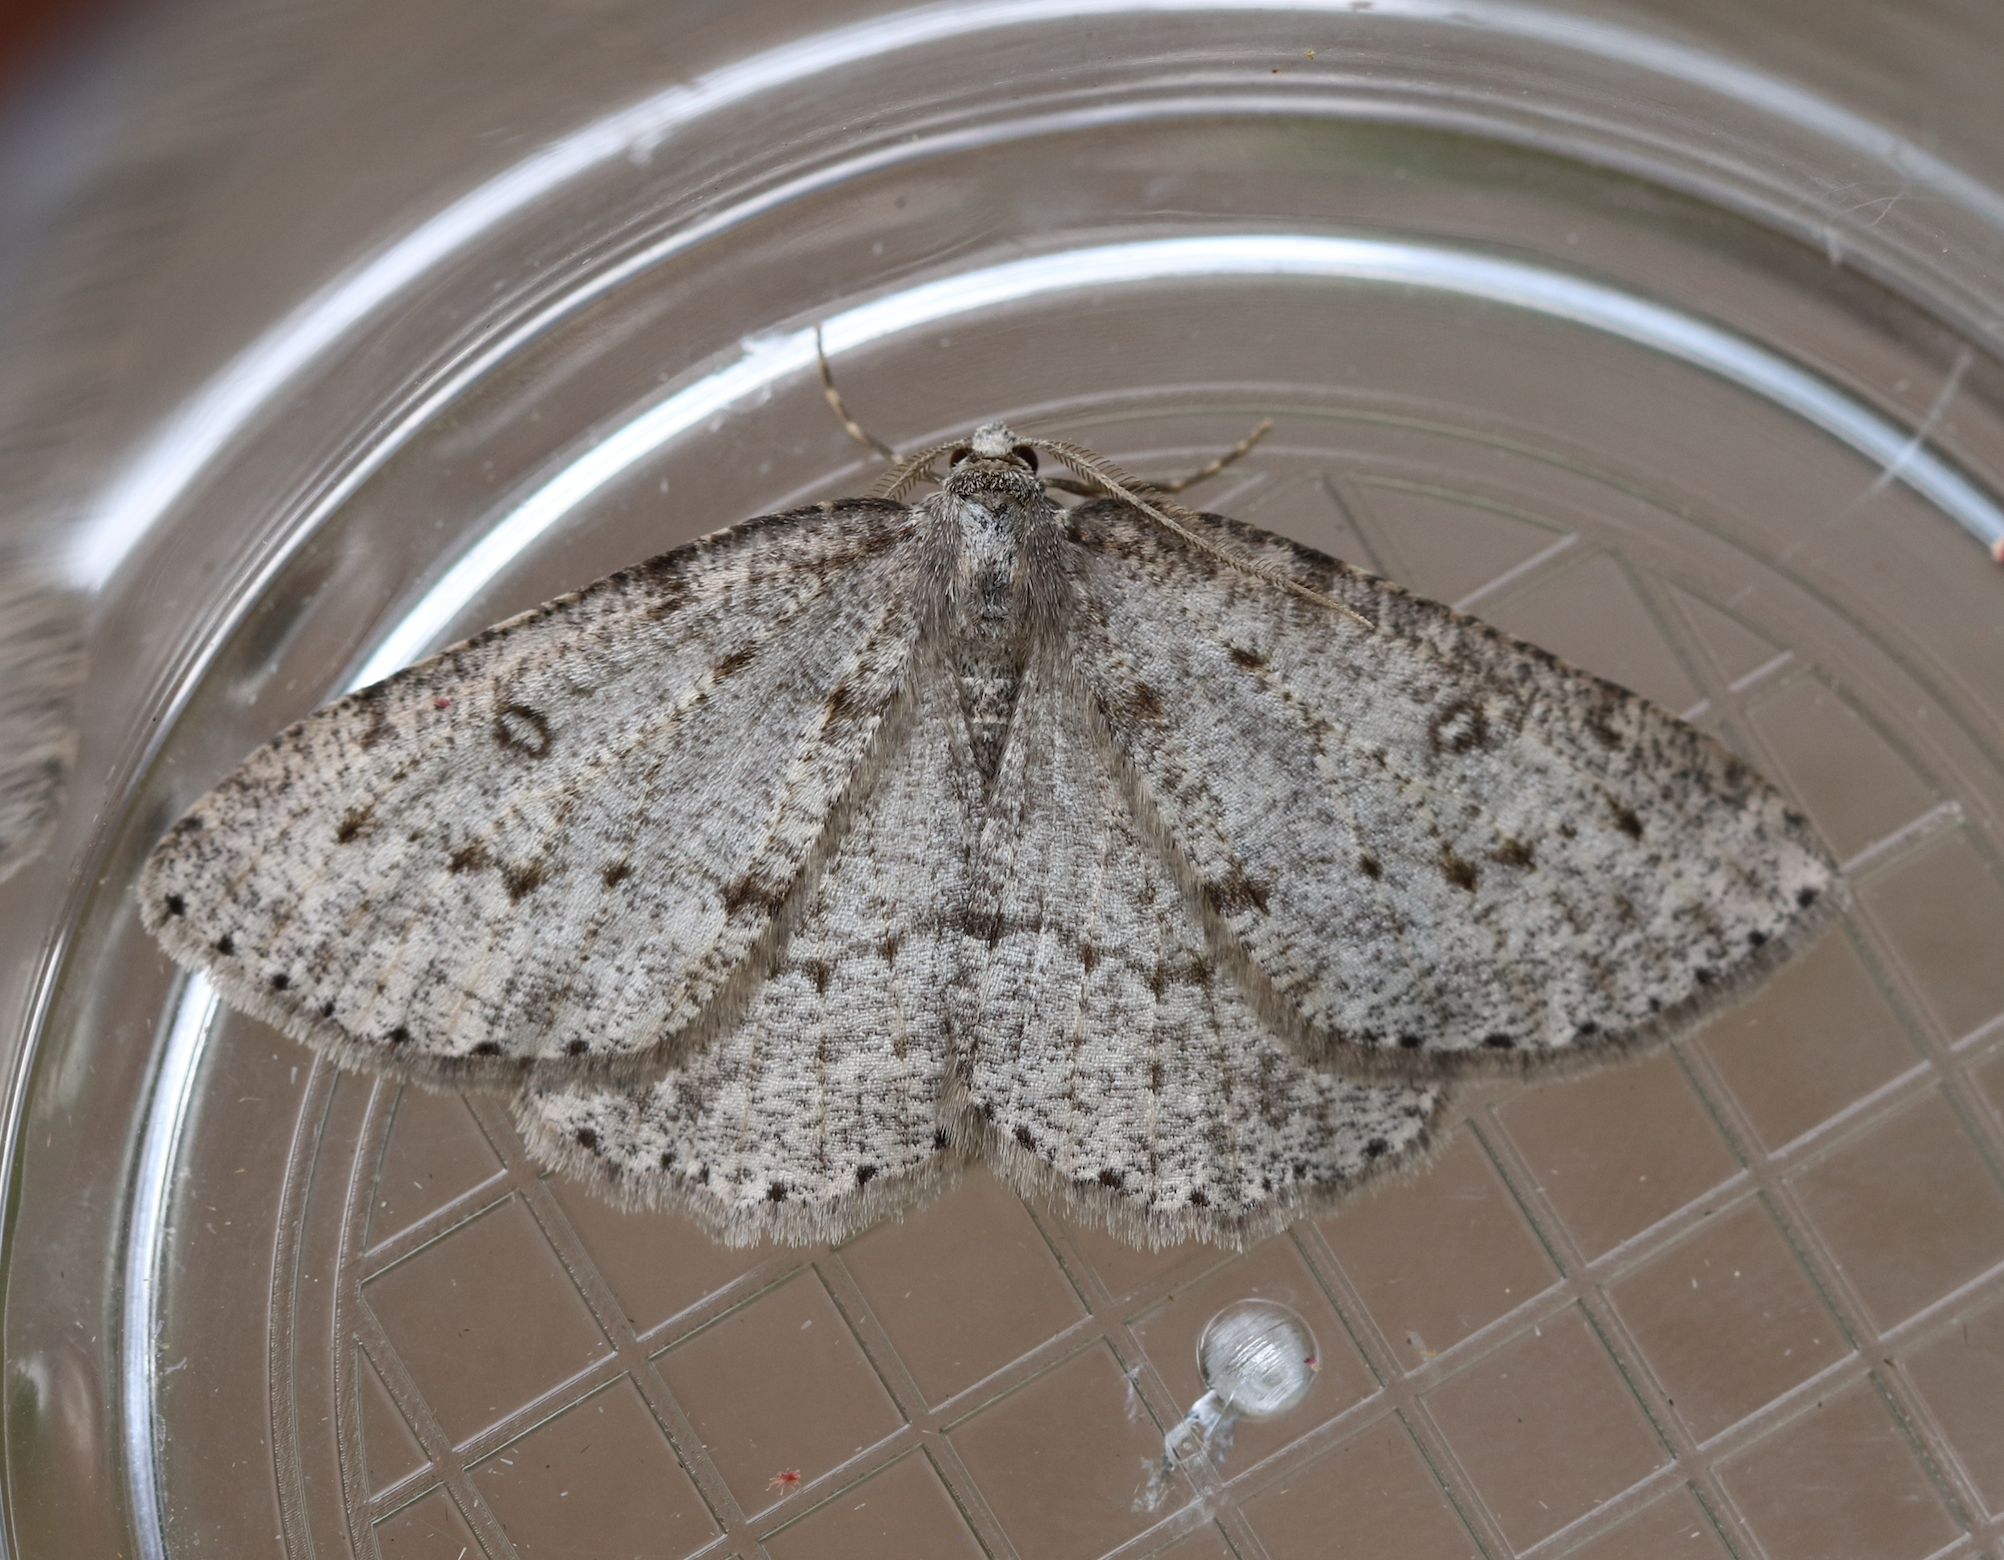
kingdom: Animalia
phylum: Arthropoda
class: Insecta
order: Lepidoptera
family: Geometridae
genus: Elophos
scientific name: Elophos Yezognophos dilucidaria
